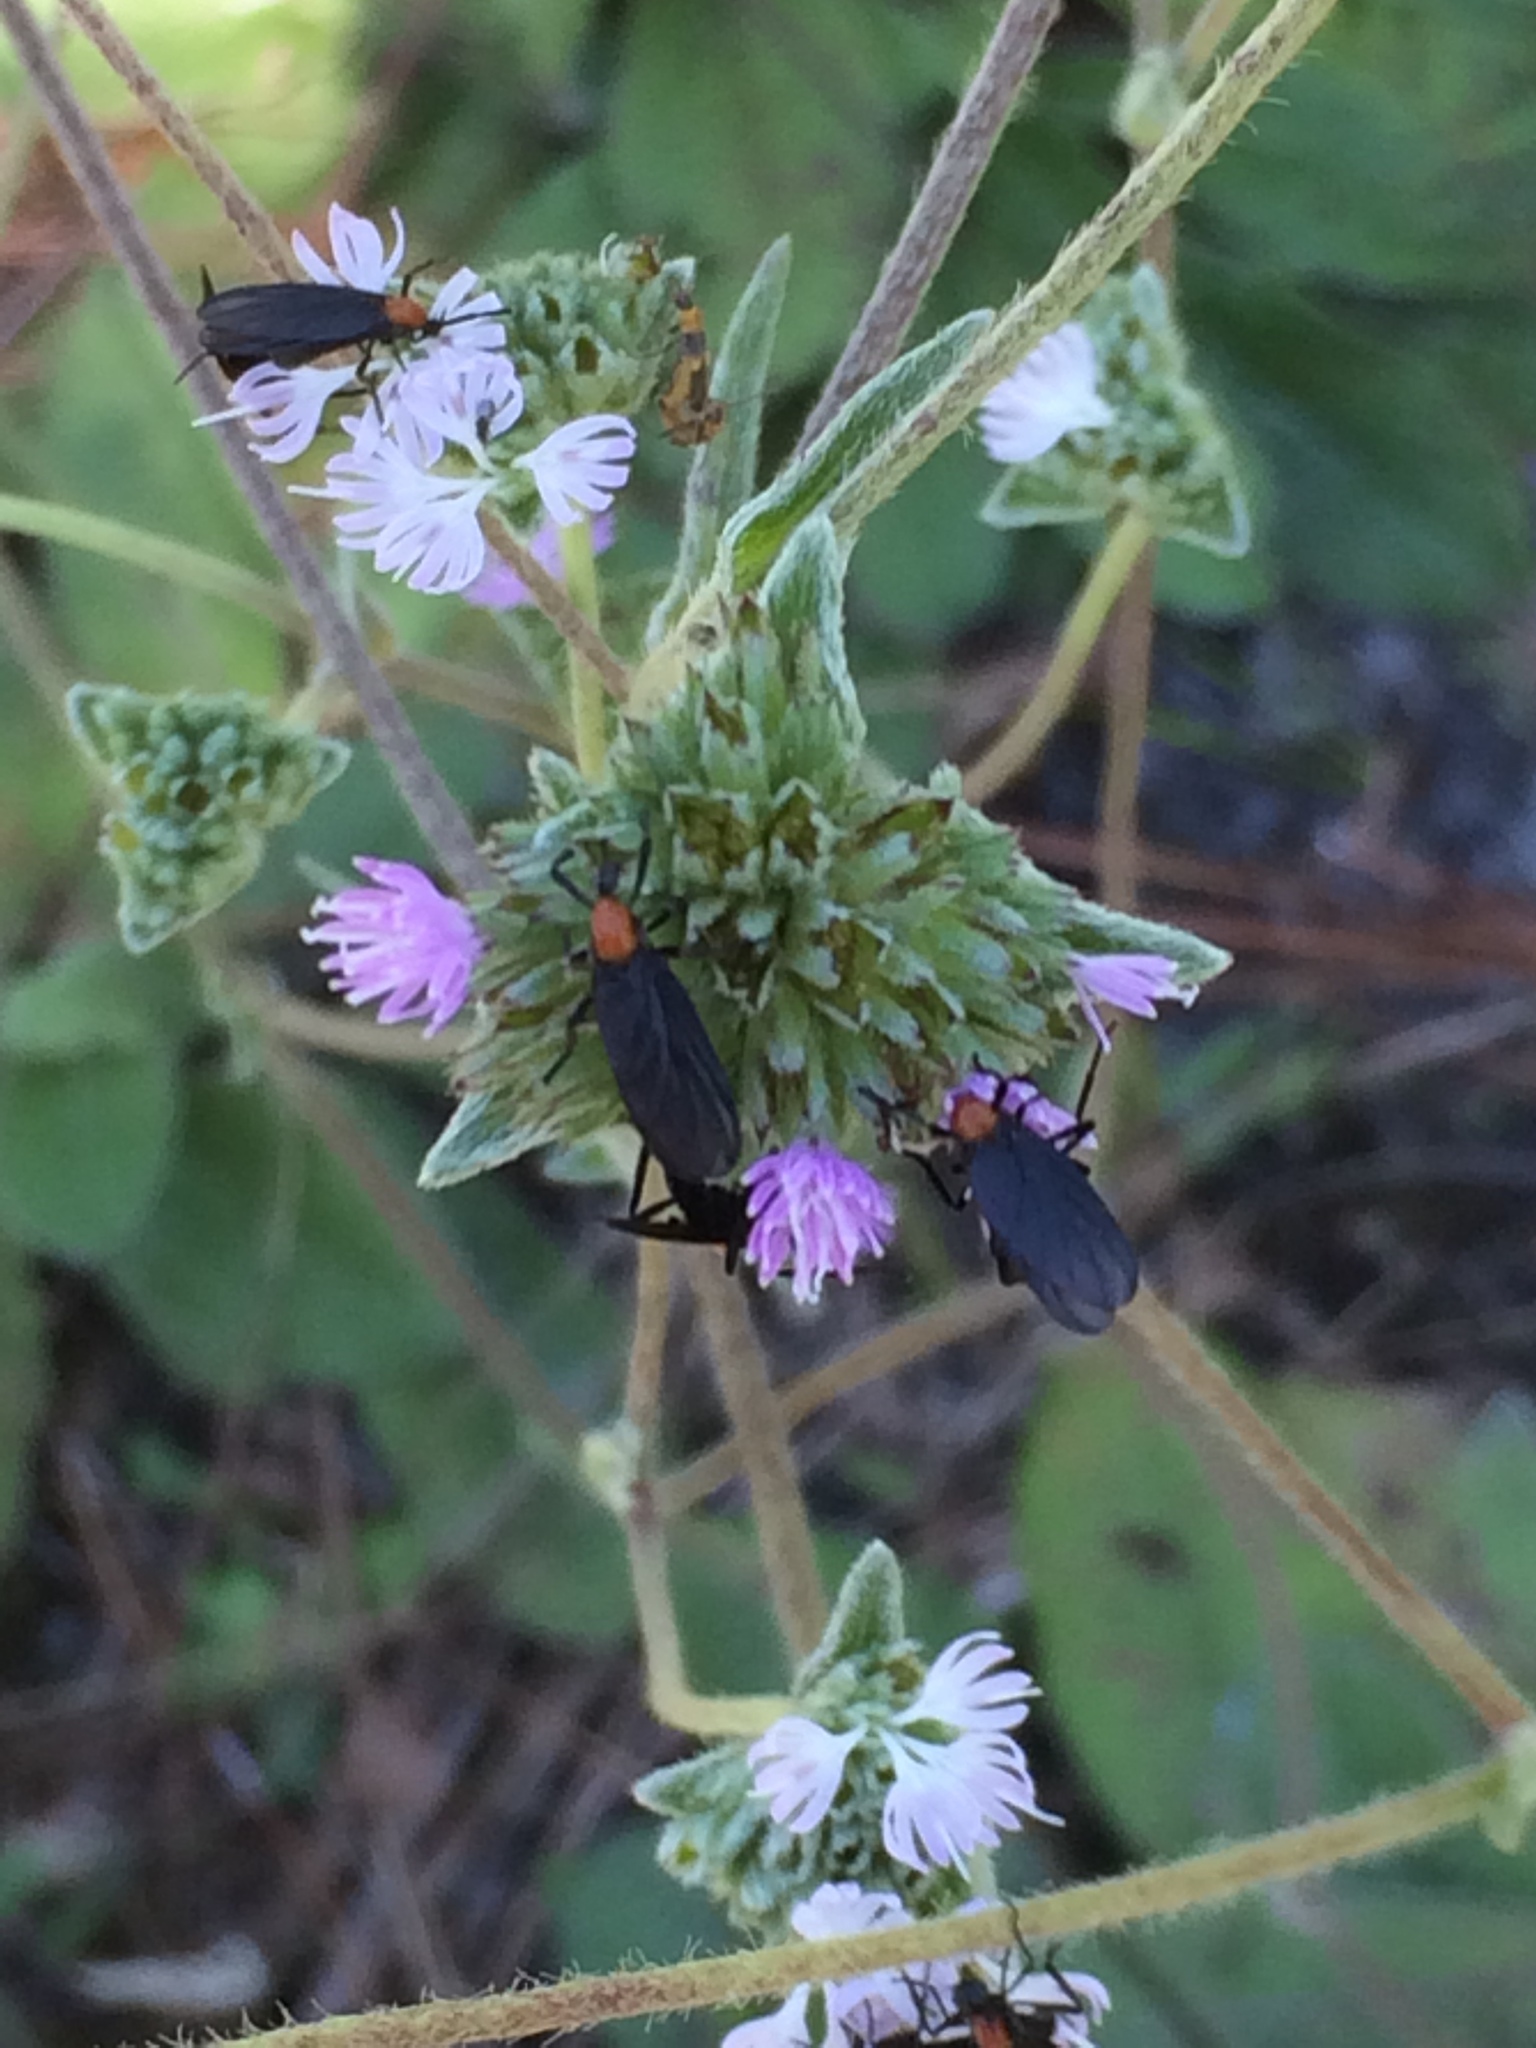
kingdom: Animalia
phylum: Arthropoda
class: Insecta
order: Diptera
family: Bibionidae
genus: Plecia
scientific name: Plecia nearctica
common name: March fly
